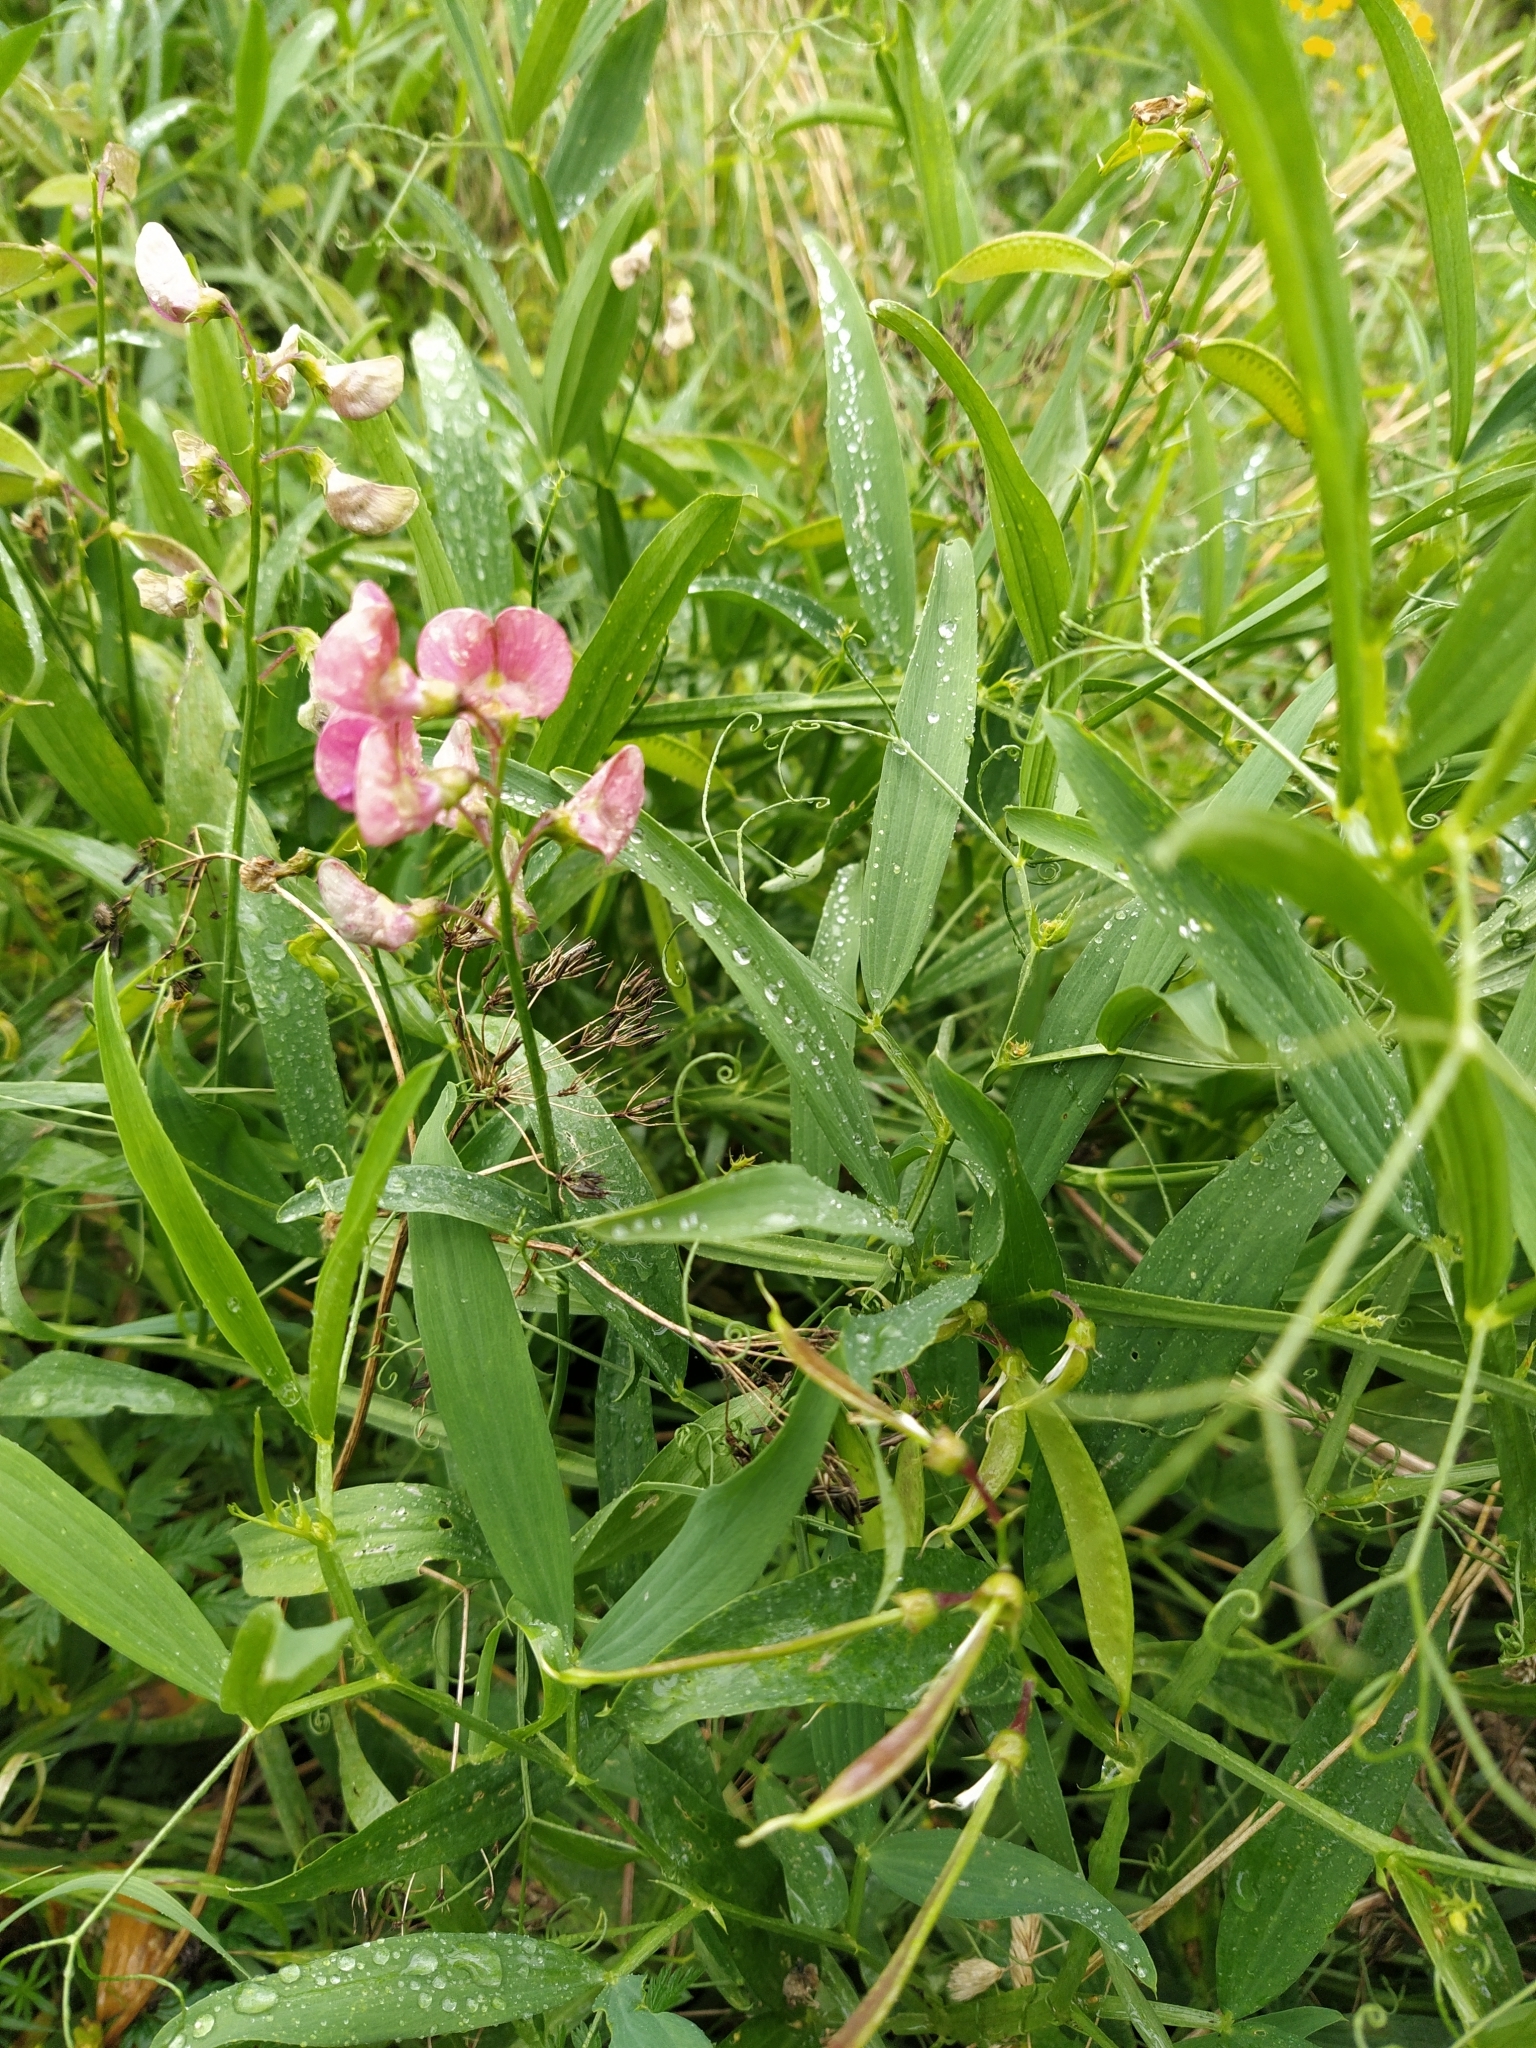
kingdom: Plantae
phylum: Tracheophyta
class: Magnoliopsida
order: Fabales
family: Fabaceae
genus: Lathyrus
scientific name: Lathyrus sylvestris
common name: Flat pea
